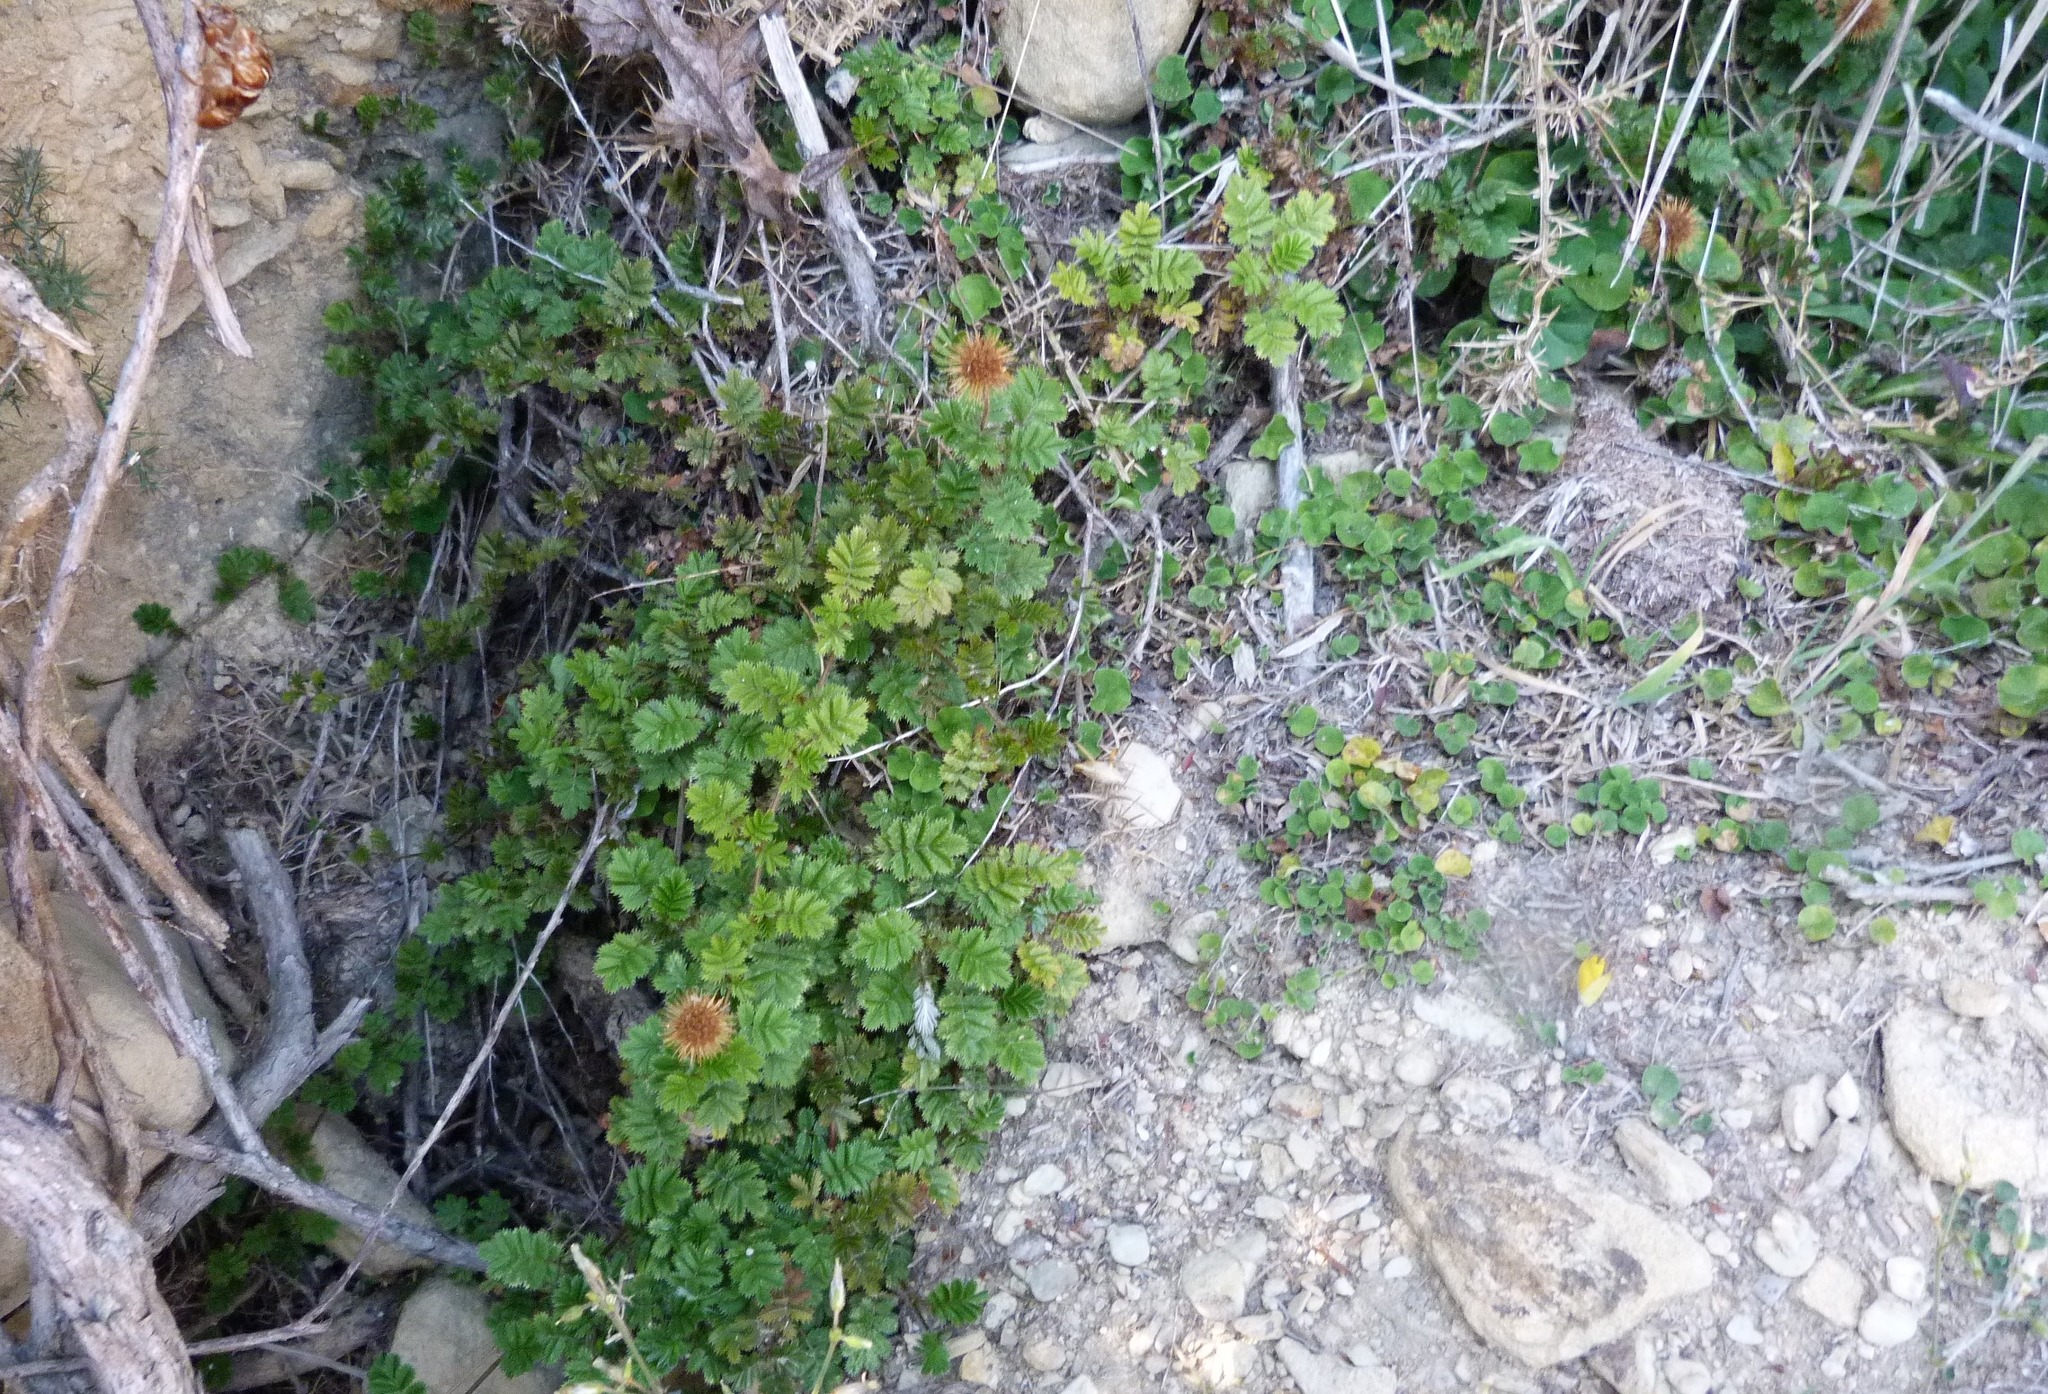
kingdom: Plantae
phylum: Tracheophyta
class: Magnoliopsida
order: Rosales
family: Rosaceae
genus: Acaena
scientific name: Acaena anserinifolia
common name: Bronze pirri-pirri-bur
